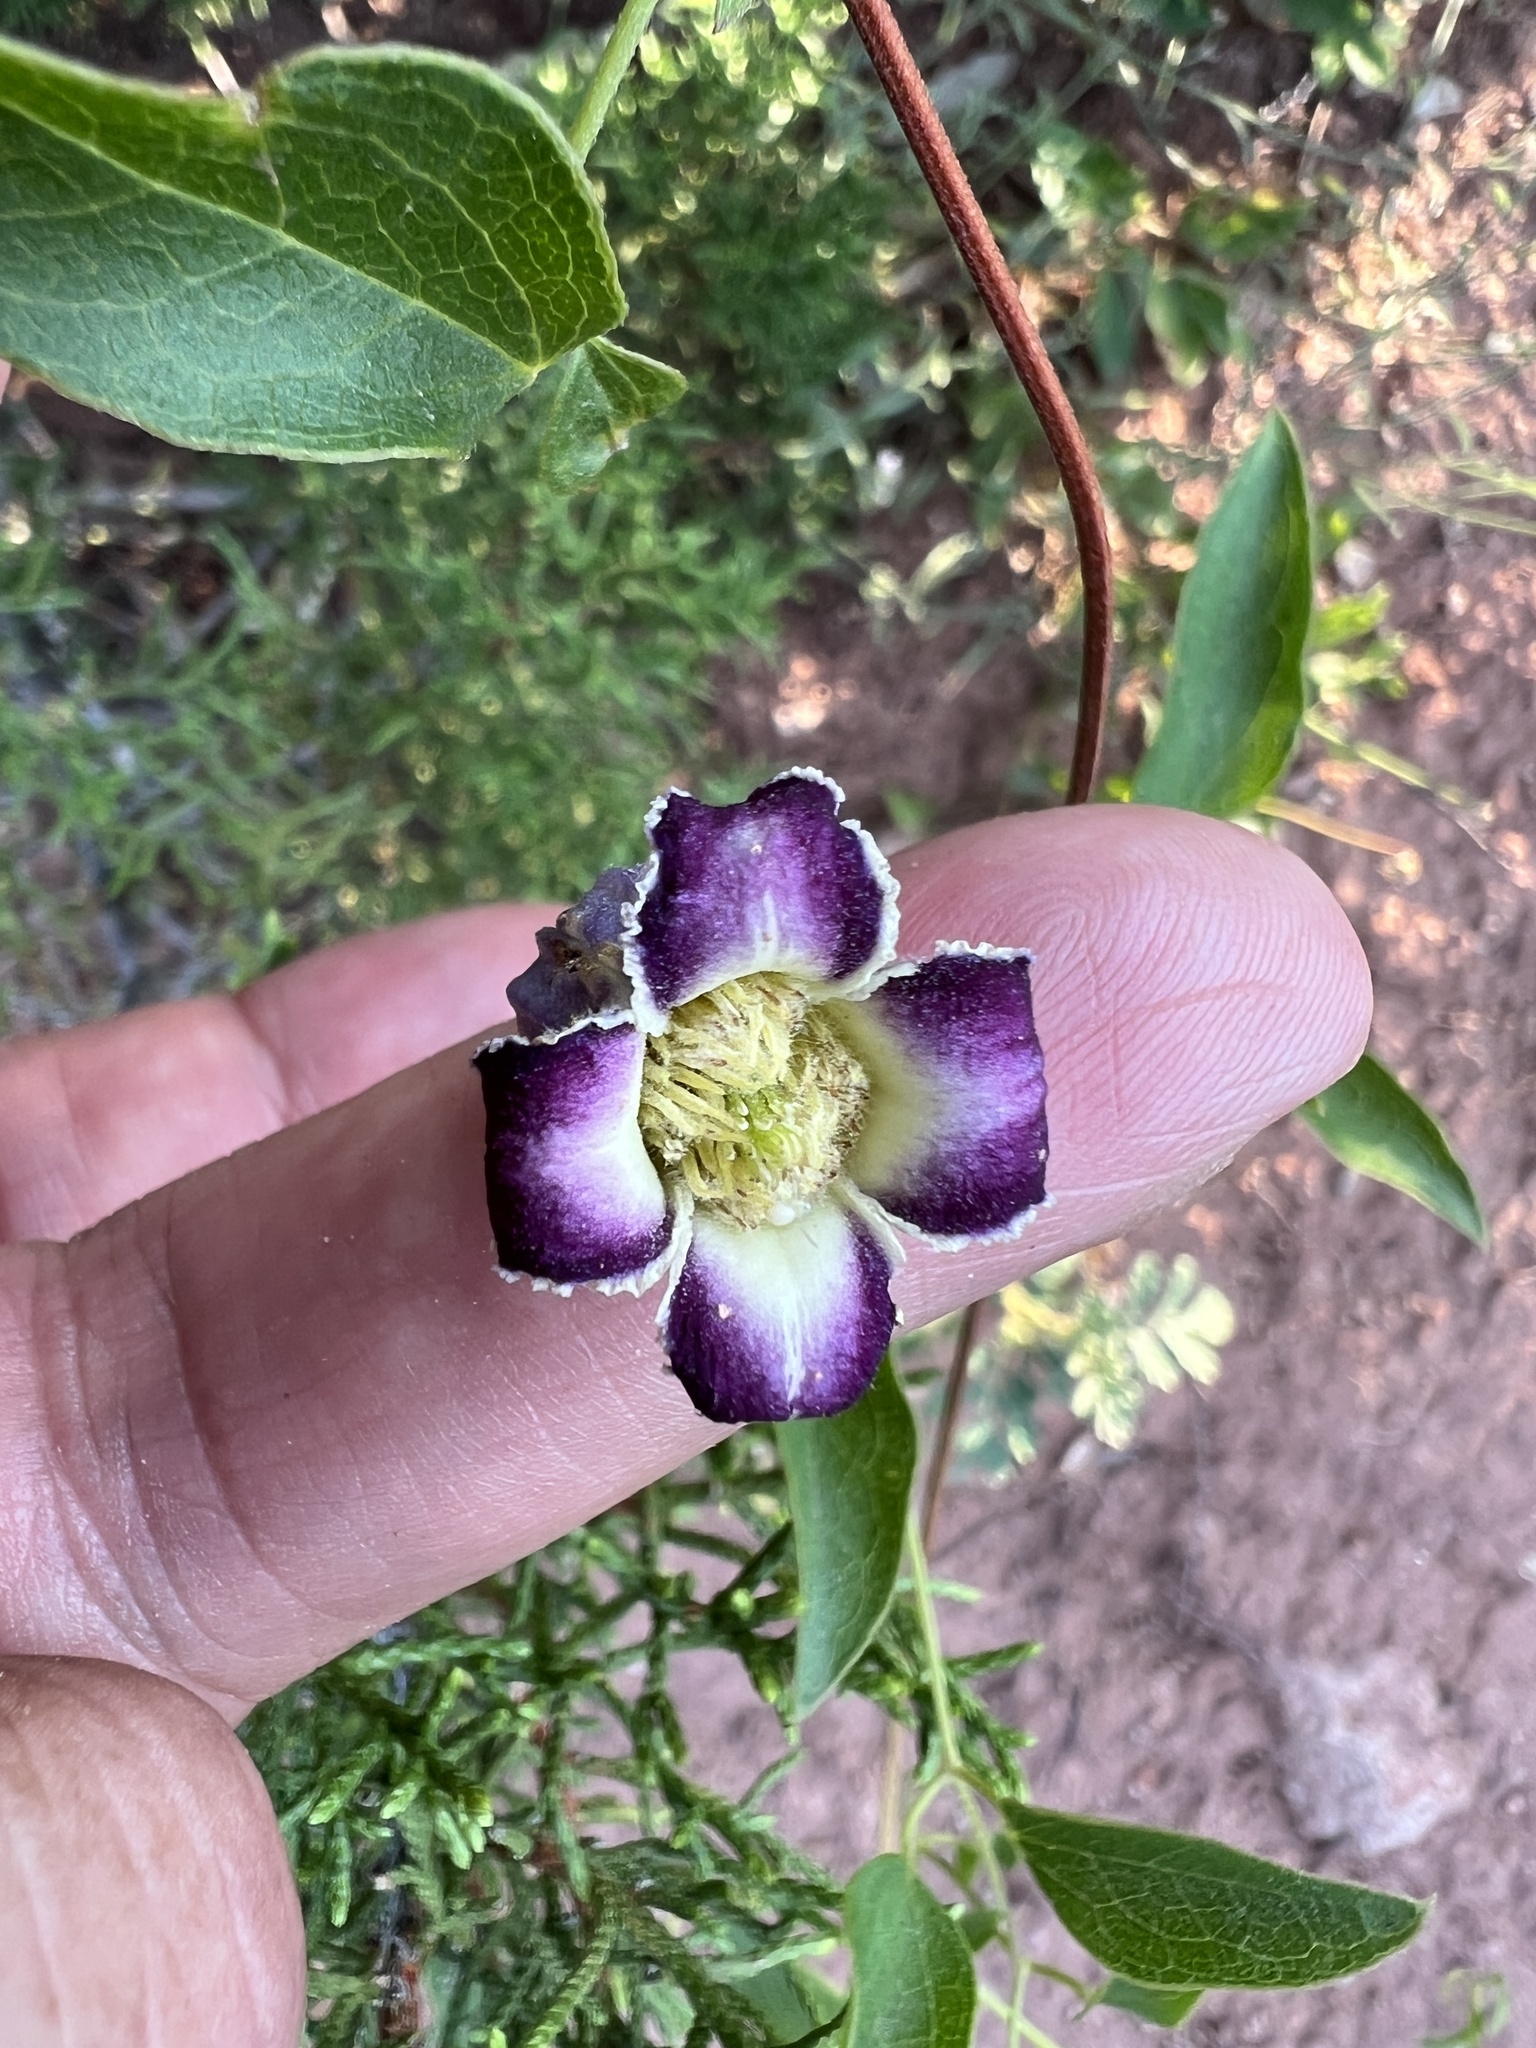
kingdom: Plantae
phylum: Tracheophyta
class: Magnoliopsida
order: Ranunculales
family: Ranunculaceae
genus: Clematis
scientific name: Clematis pitcheri
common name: Bellflower clematis
